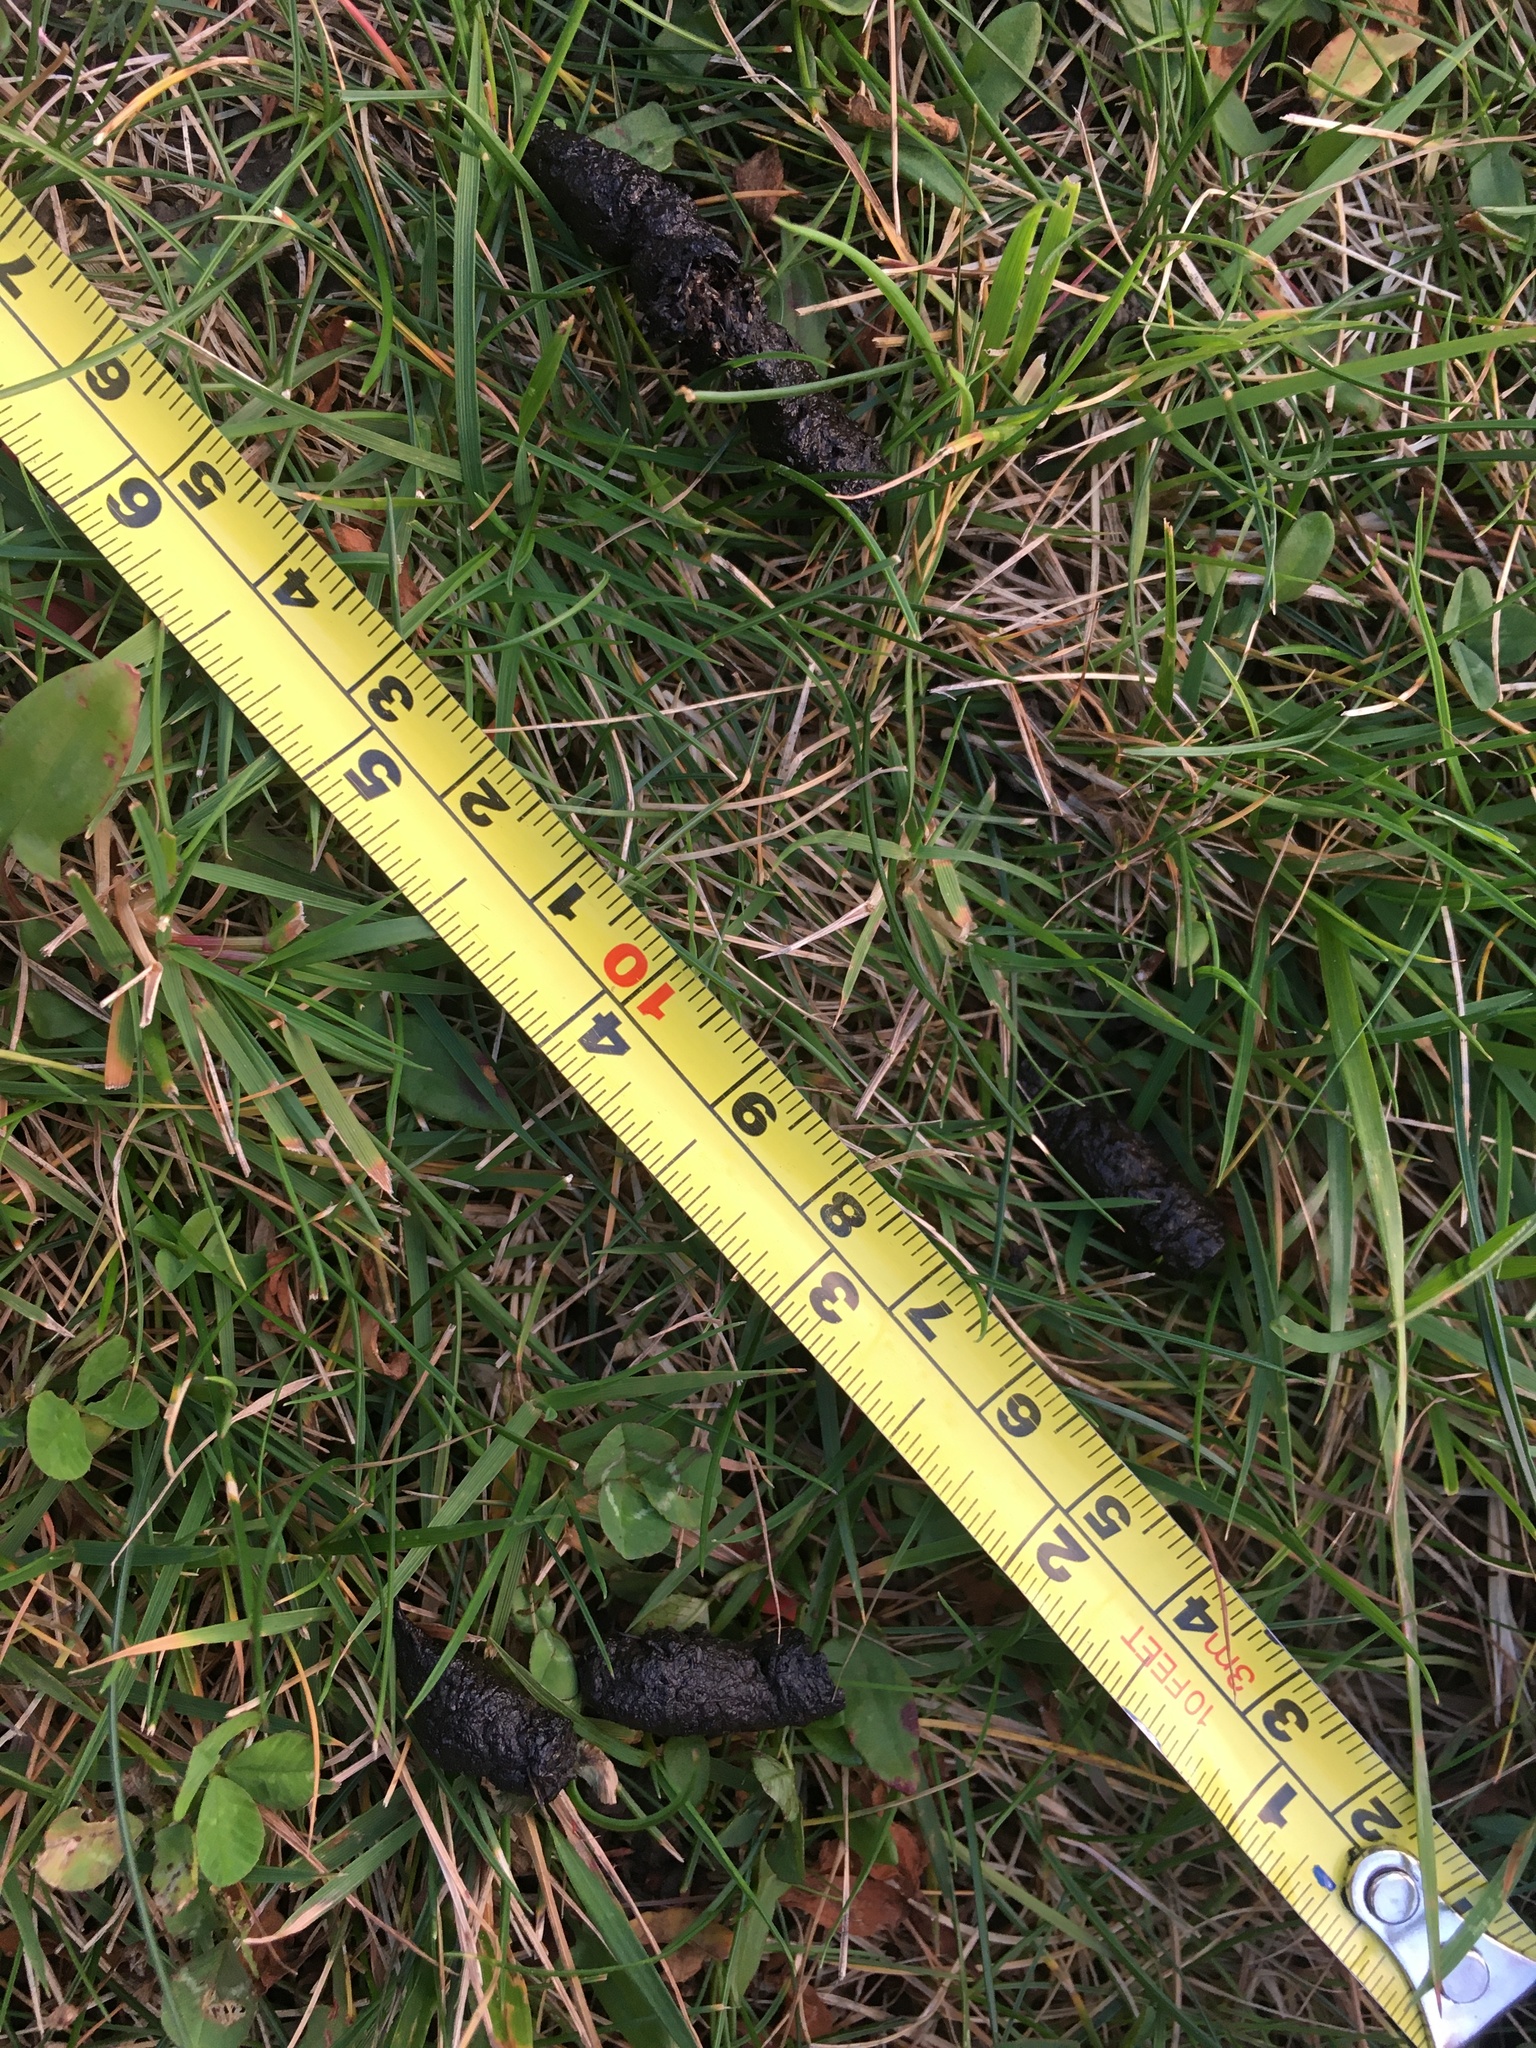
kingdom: Animalia
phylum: Chordata
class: Mammalia
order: Erinaceomorpha
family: Erinaceidae
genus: Erinaceus
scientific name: Erinaceus europaeus
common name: West european hedgehog
